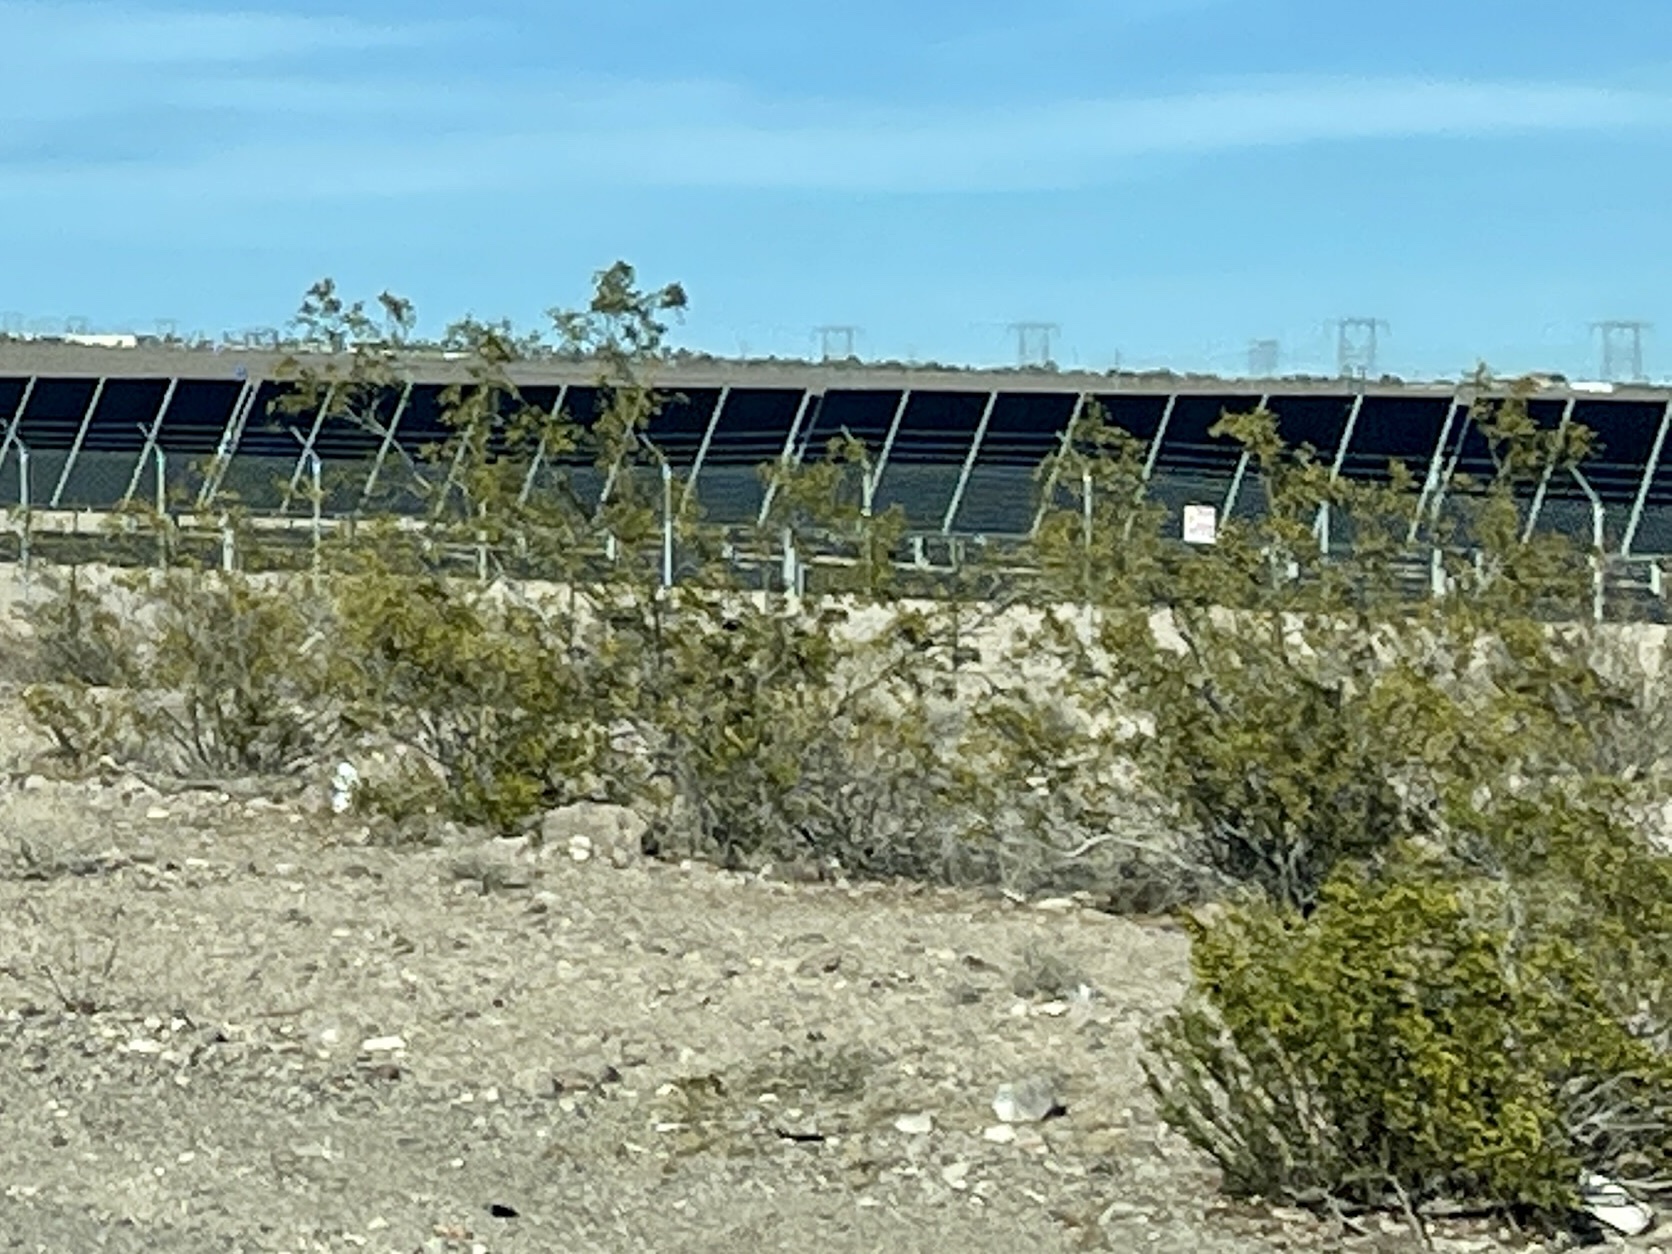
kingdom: Plantae
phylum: Tracheophyta
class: Magnoliopsida
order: Zygophyllales
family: Zygophyllaceae
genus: Larrea
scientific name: Larrea tridentata
